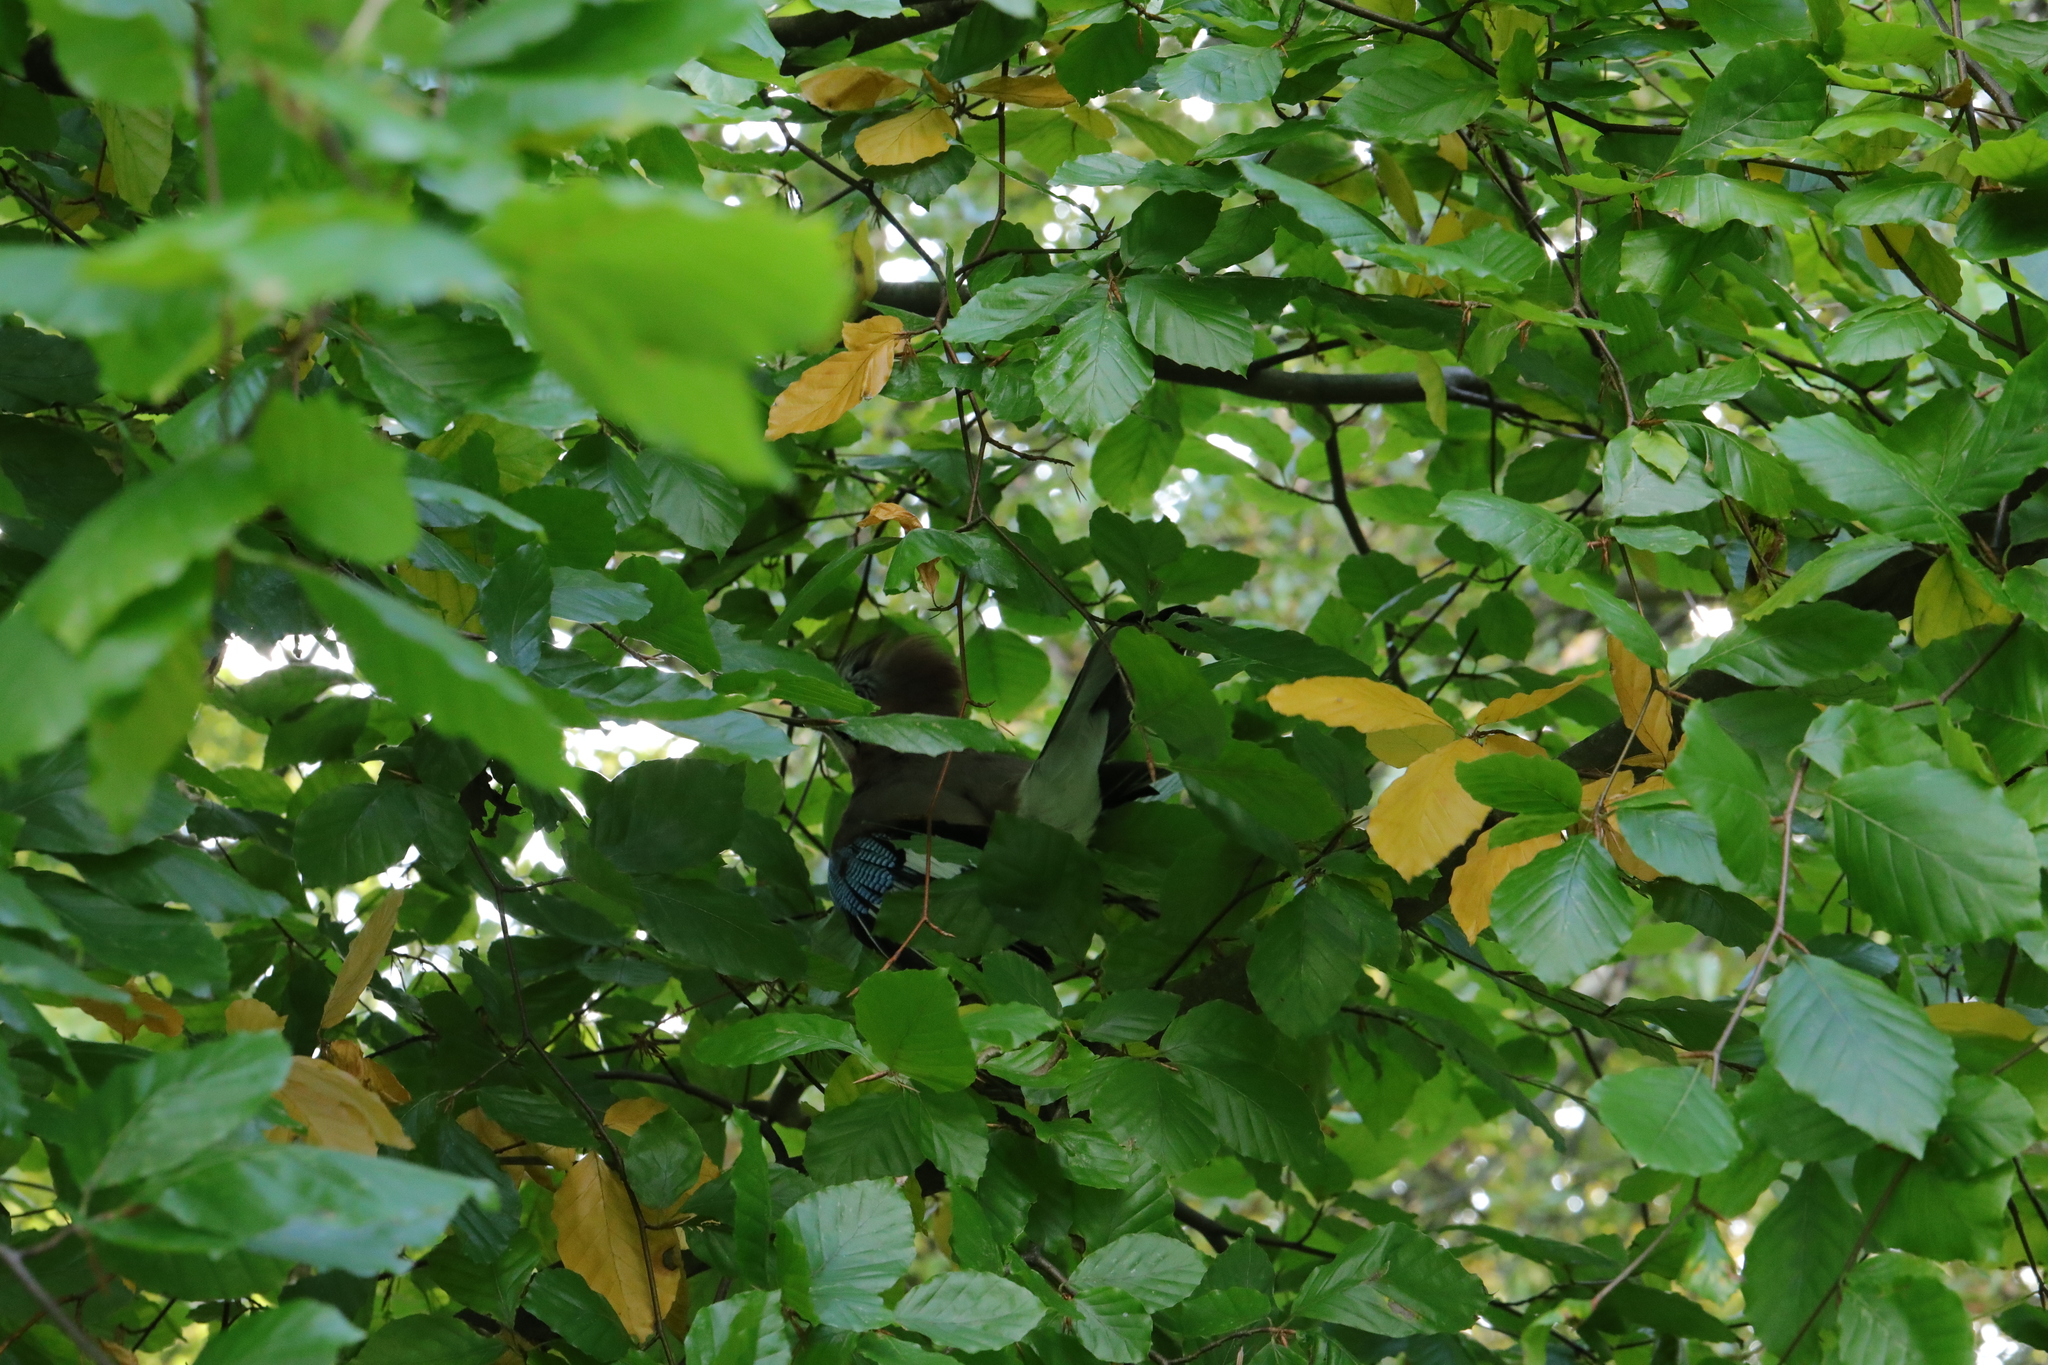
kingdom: Plantae
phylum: Tracheophyta
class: Magnoliopsida
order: Fagales
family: Fagaceae
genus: Fagus
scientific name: Fagus sylvatica
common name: Beech
